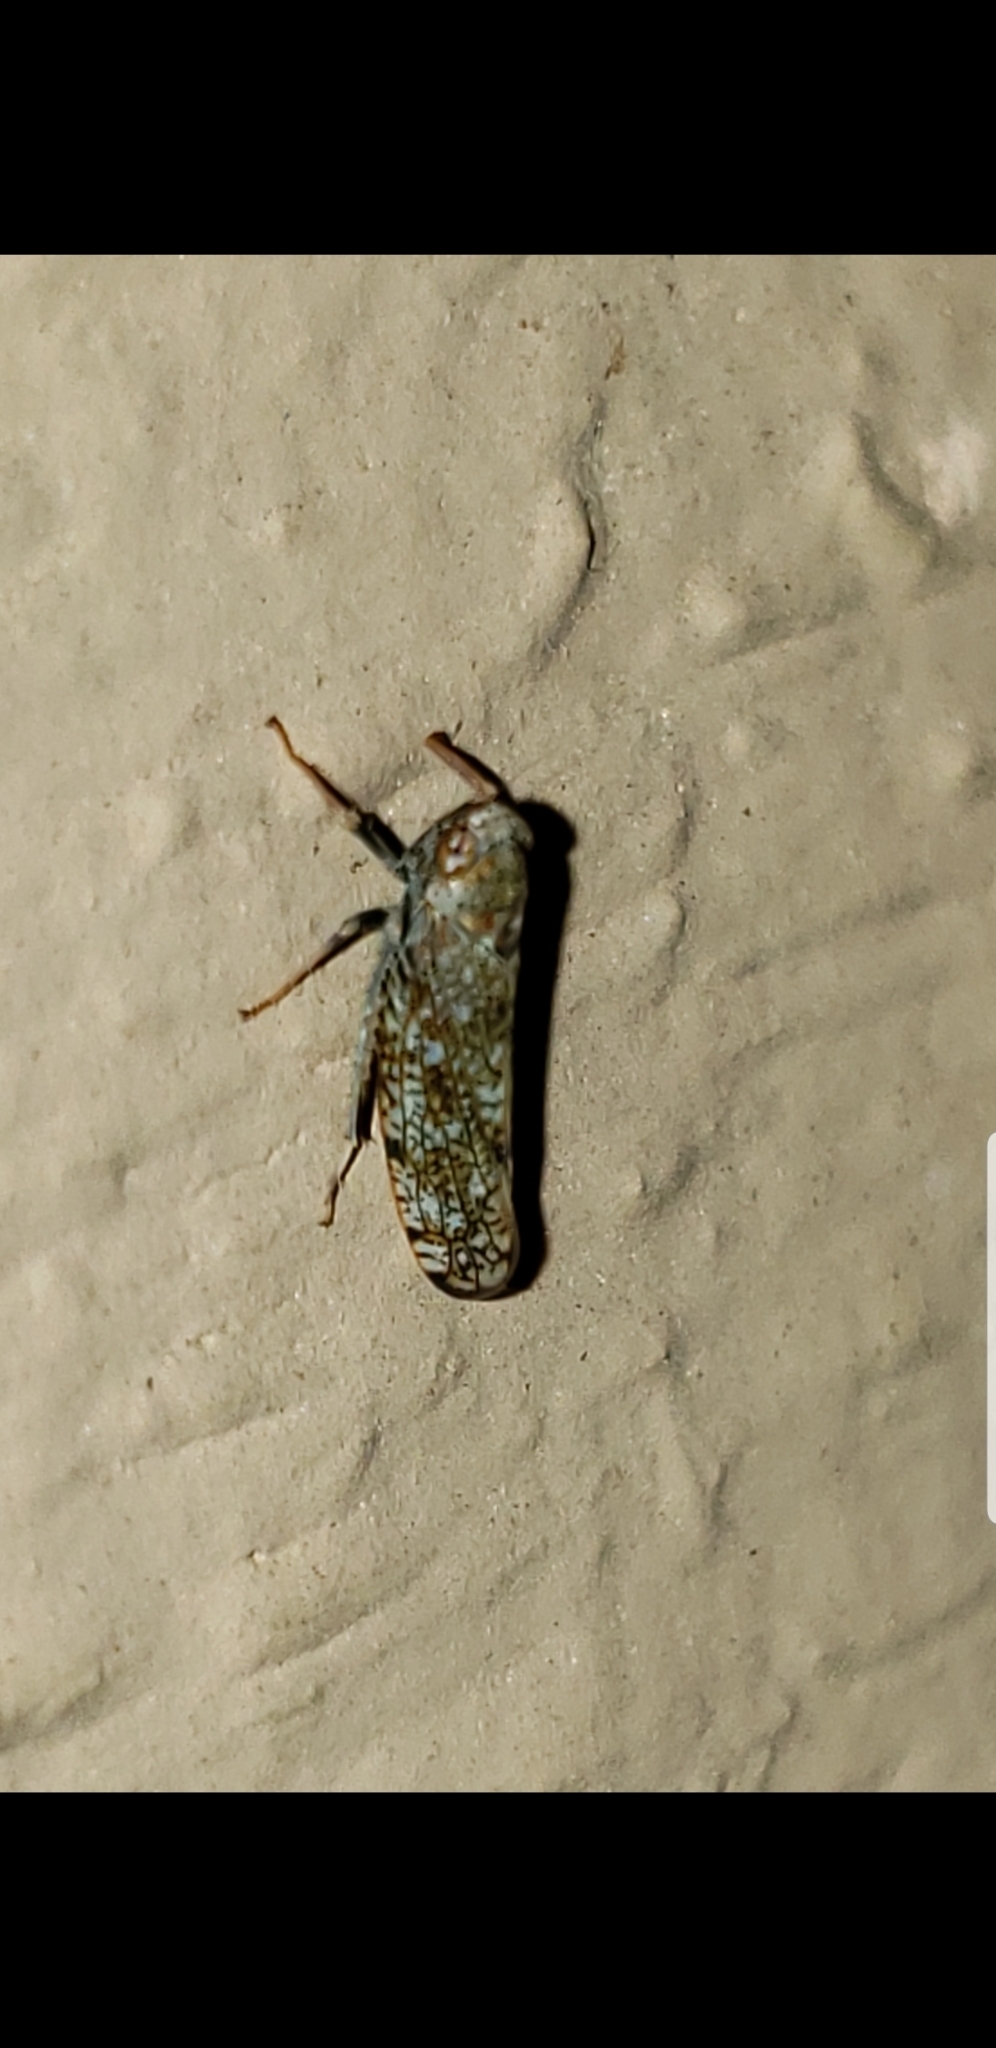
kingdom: Animalia
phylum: Arthropoda
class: Insecta
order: Hemiptera
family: Cicadellidae
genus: Orientus
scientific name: Orientus ishidae
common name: Japanese leafhopper
